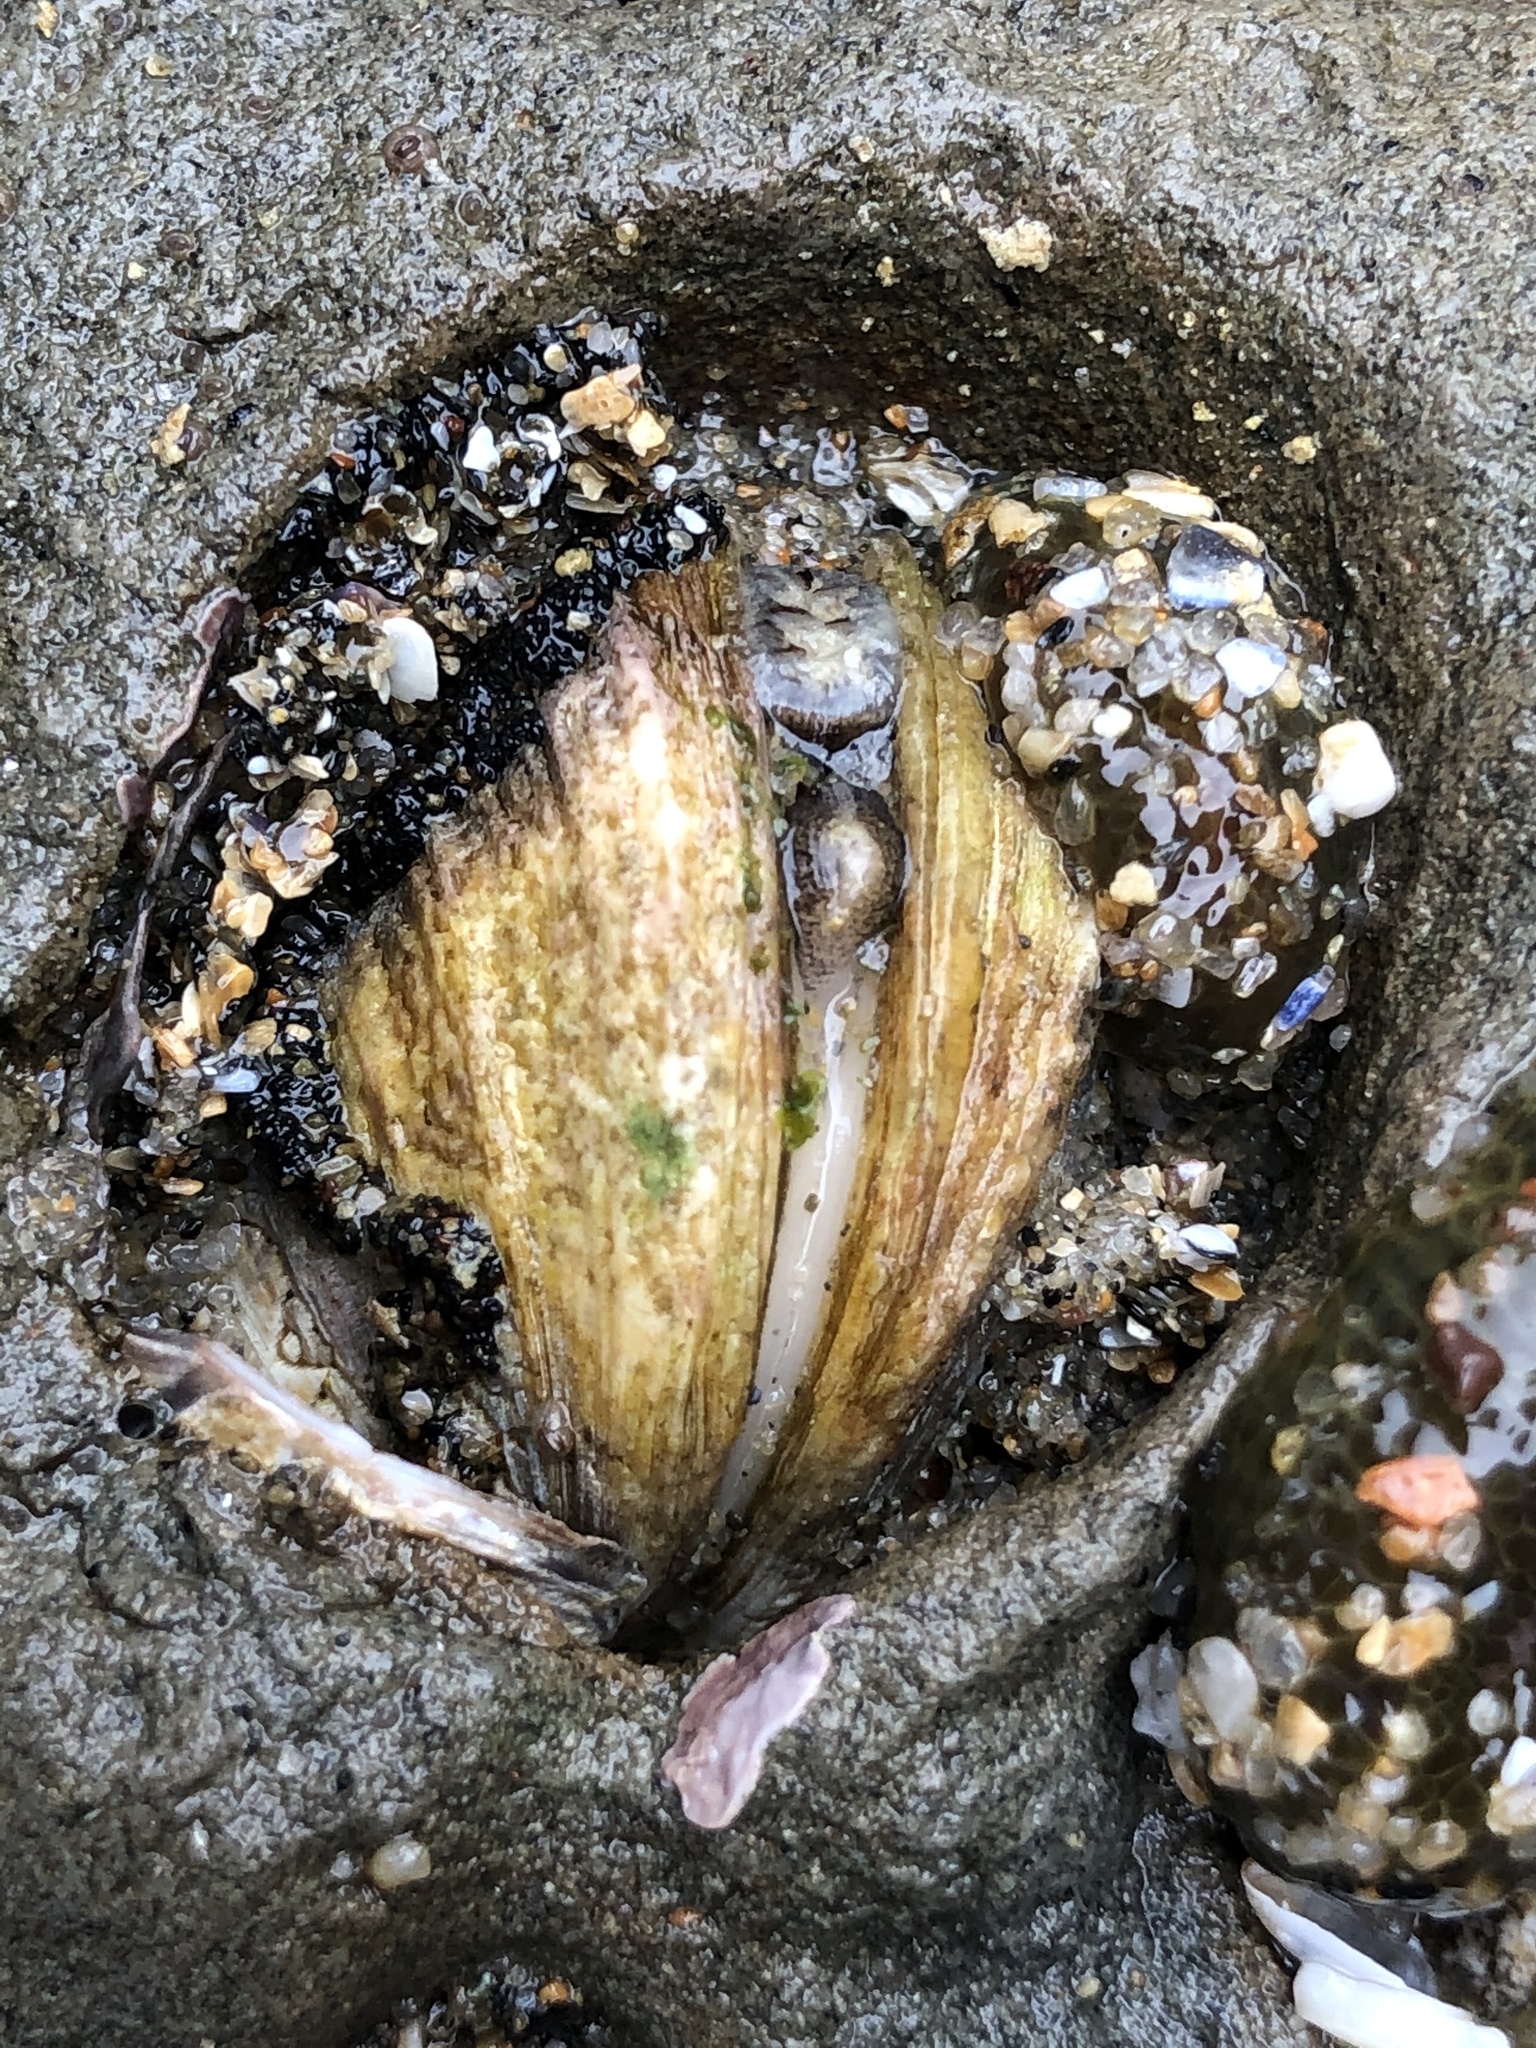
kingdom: Animalia
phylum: Mollusca
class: Bivalvia
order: Venerida
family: Veneridae
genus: Petricola
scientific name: Petricola carditoides
